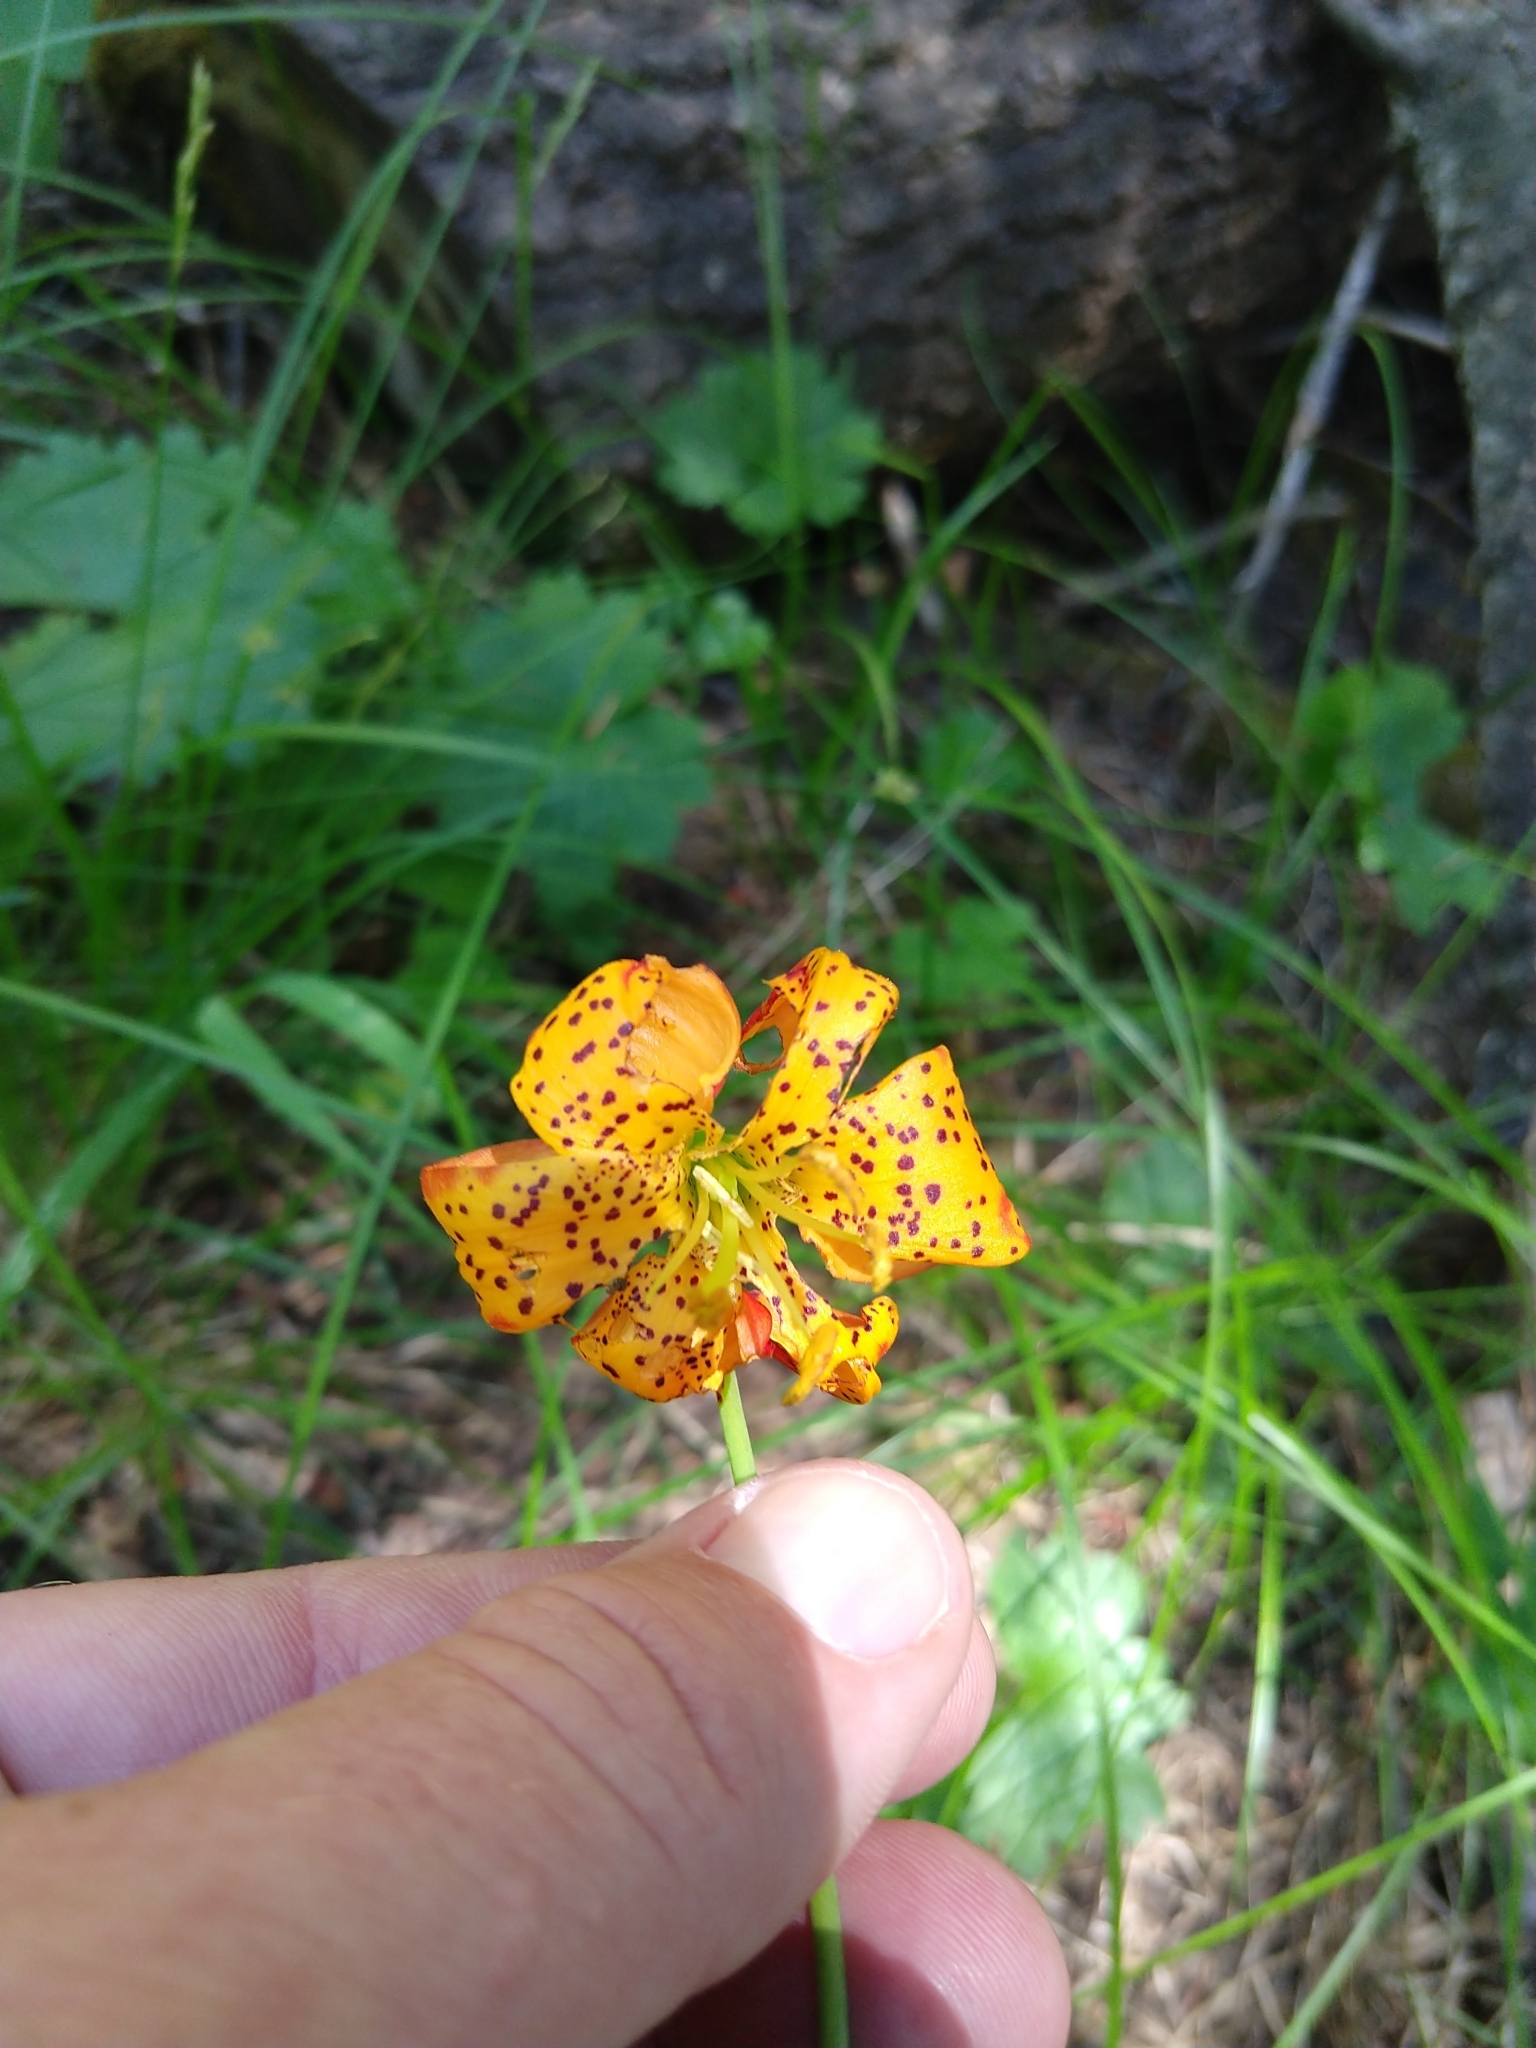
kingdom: Plantae
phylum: Tracheophyta
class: Liliopsida
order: Liliales
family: Liliaceae
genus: Lilium
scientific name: Lilium pardalinum
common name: Panther lily
